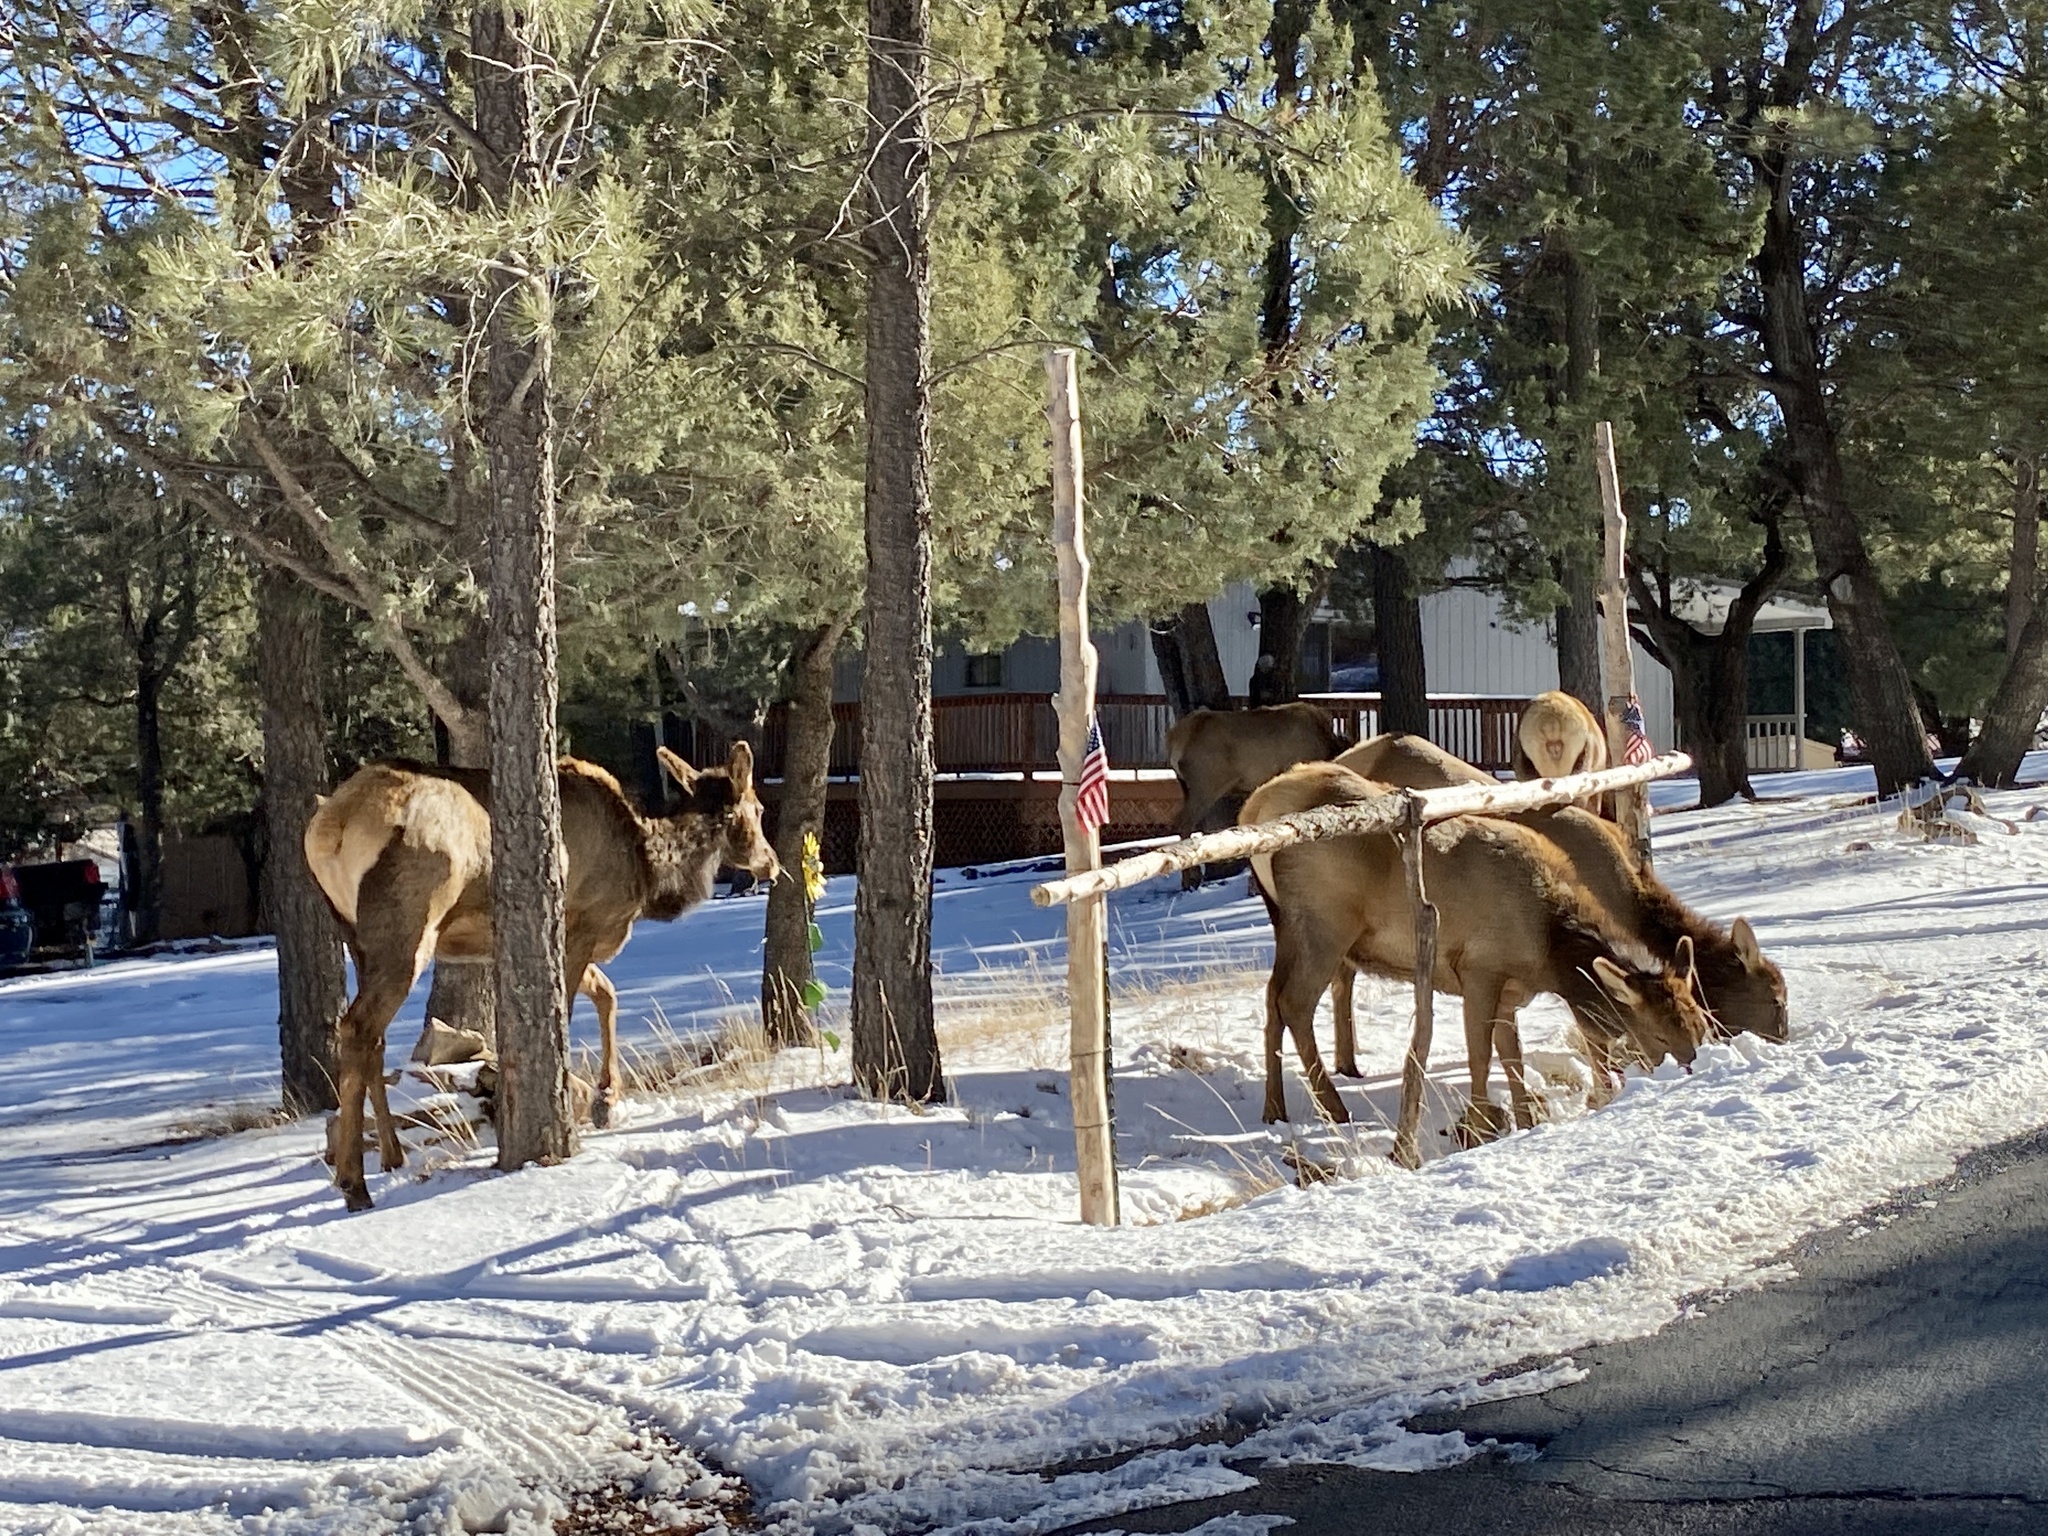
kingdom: Animalia
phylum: Chordata
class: Mammalia
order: Artiodactyla
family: Cervidae
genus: Cervus
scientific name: Cervus elaphus
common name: Red deer
